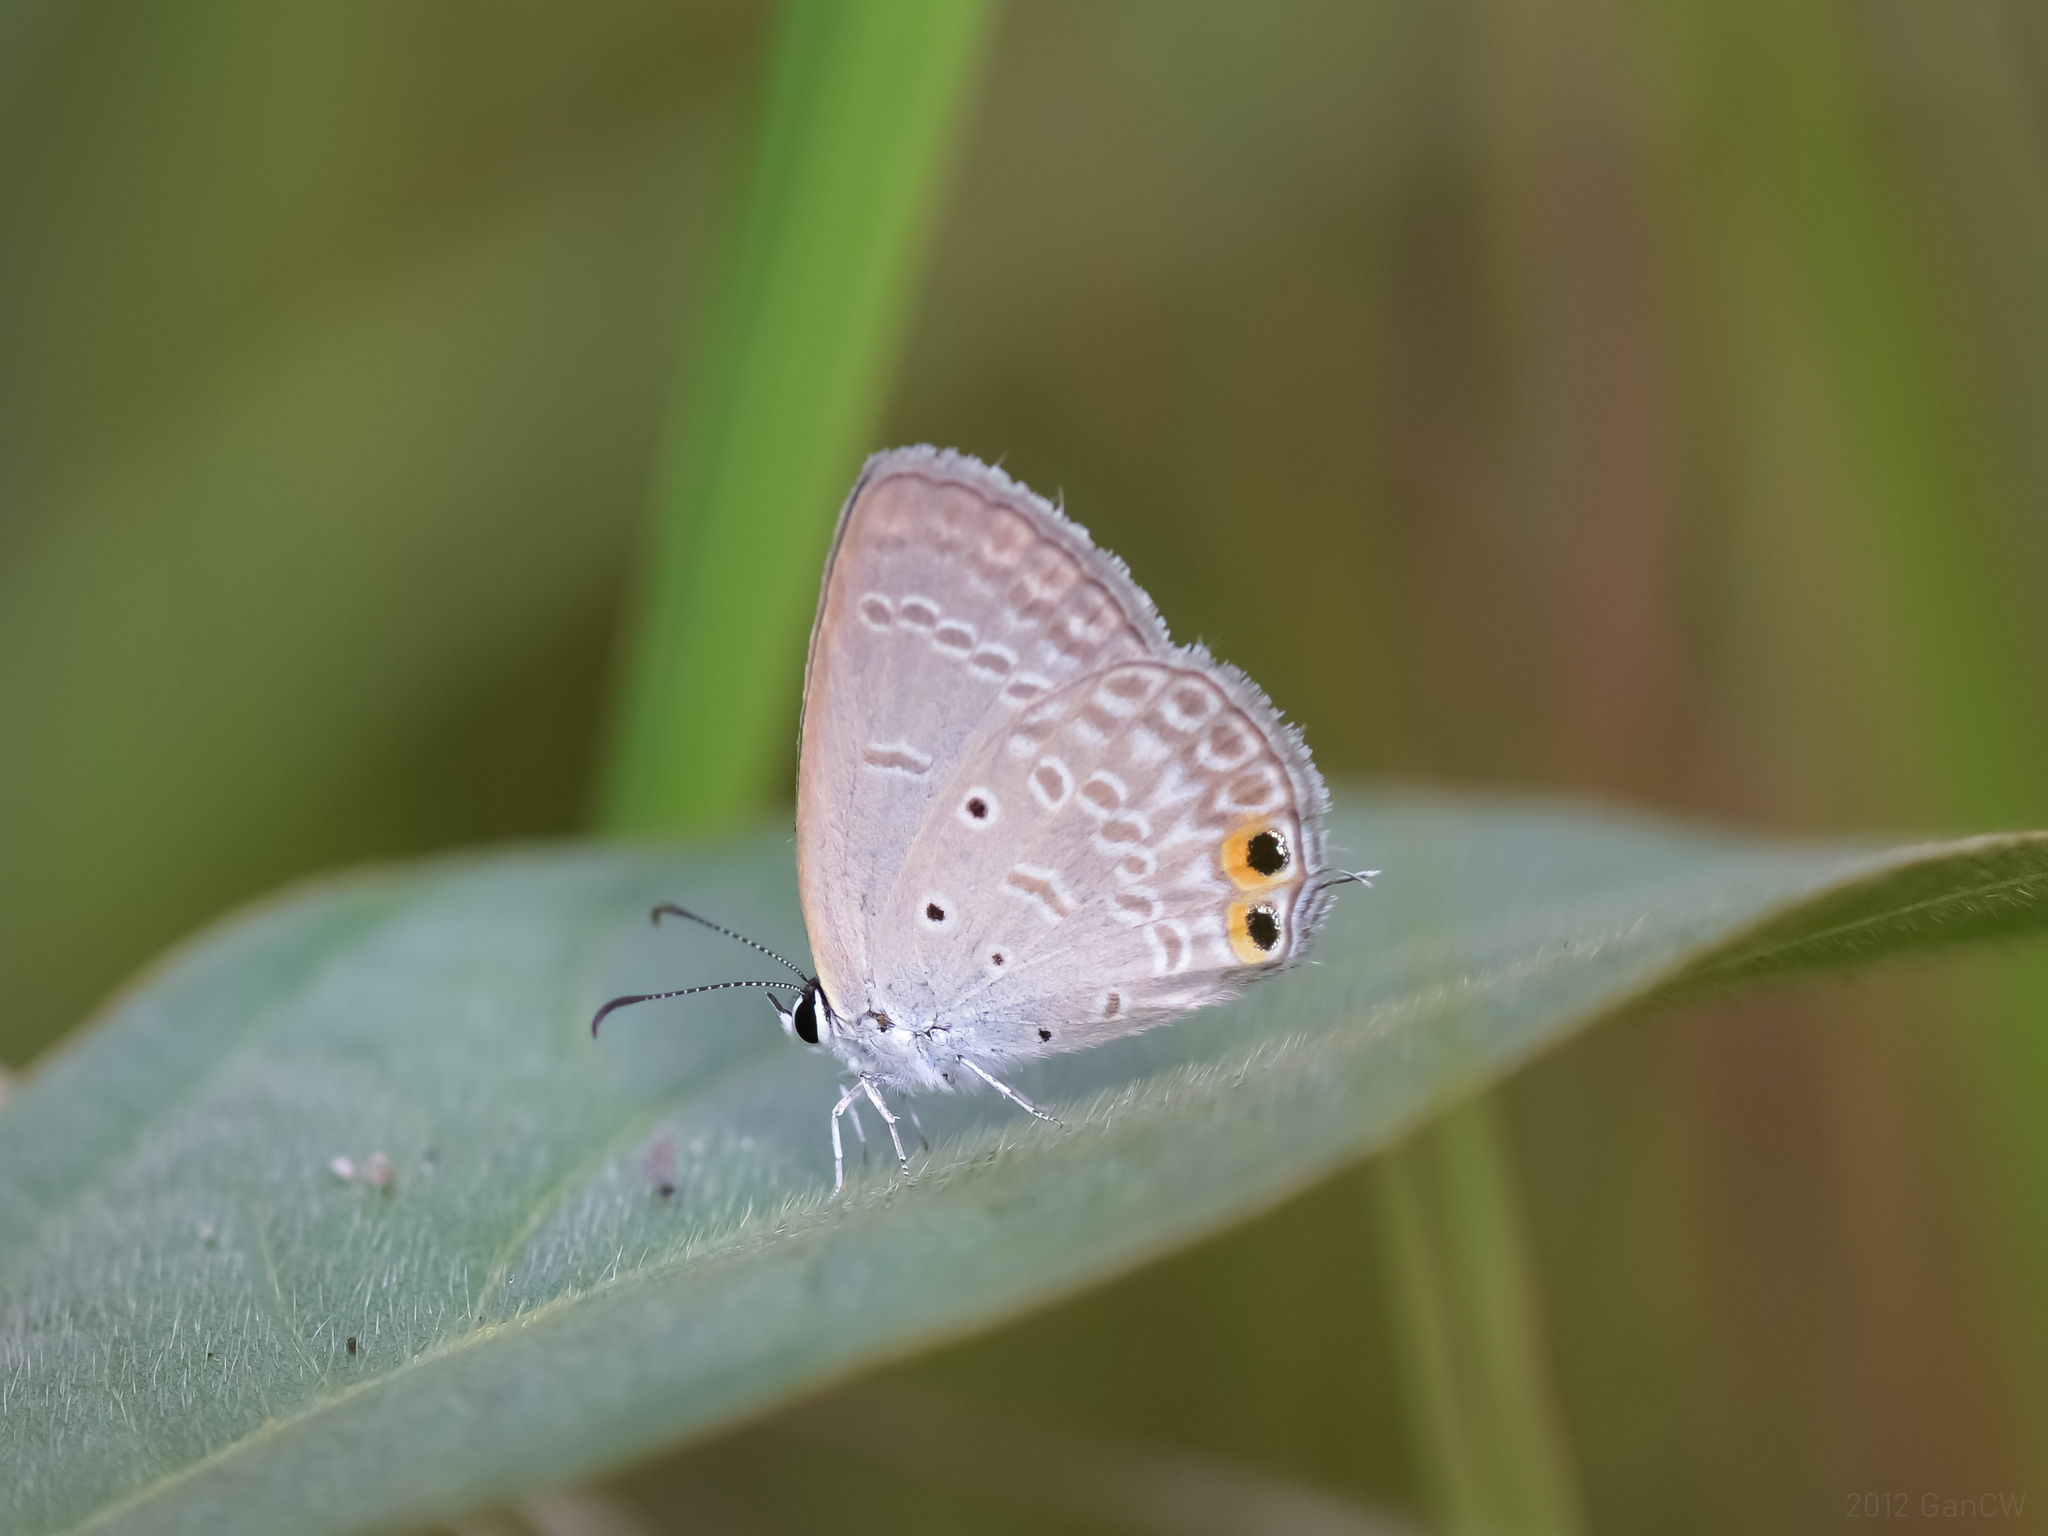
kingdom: Animalia
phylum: Arthropoda
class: Insecta
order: Lepidoptera
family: Lycaenidae
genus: Euchrysops
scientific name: Euchrysops cnejus
